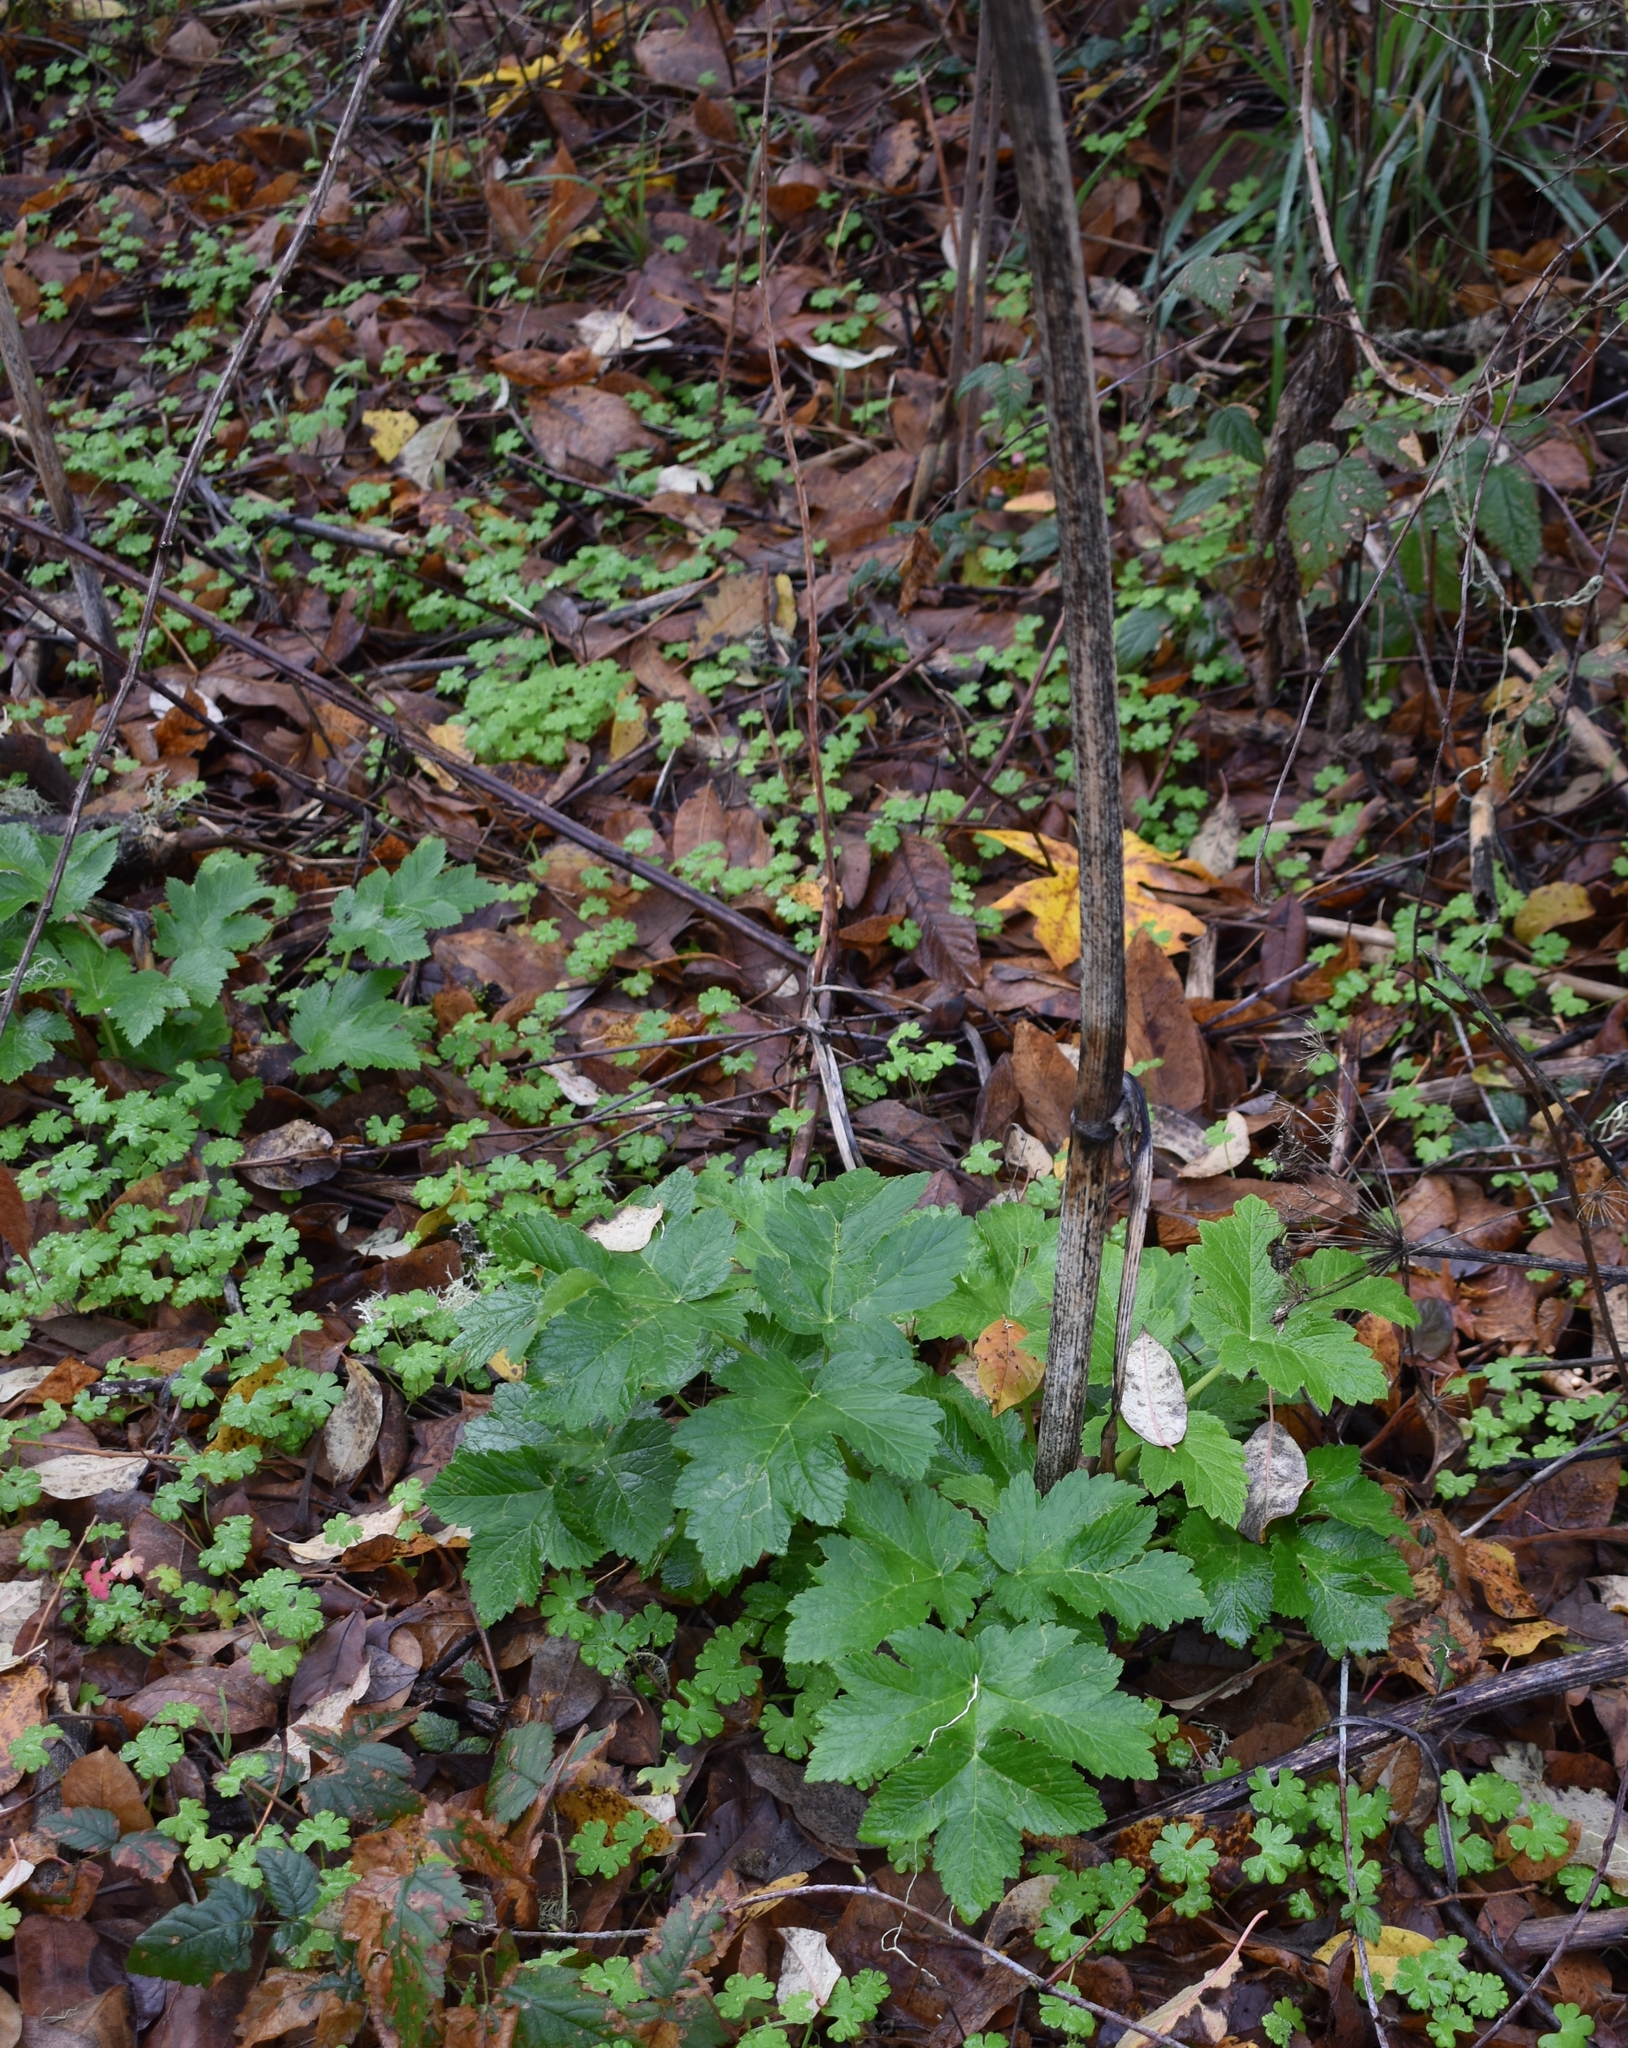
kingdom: Plantae
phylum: Tracheophyta
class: Magnoliopsida
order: Apiales
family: Apiaceae
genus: Heracleum
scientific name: Heracleum maximum
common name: American cow parsnip
